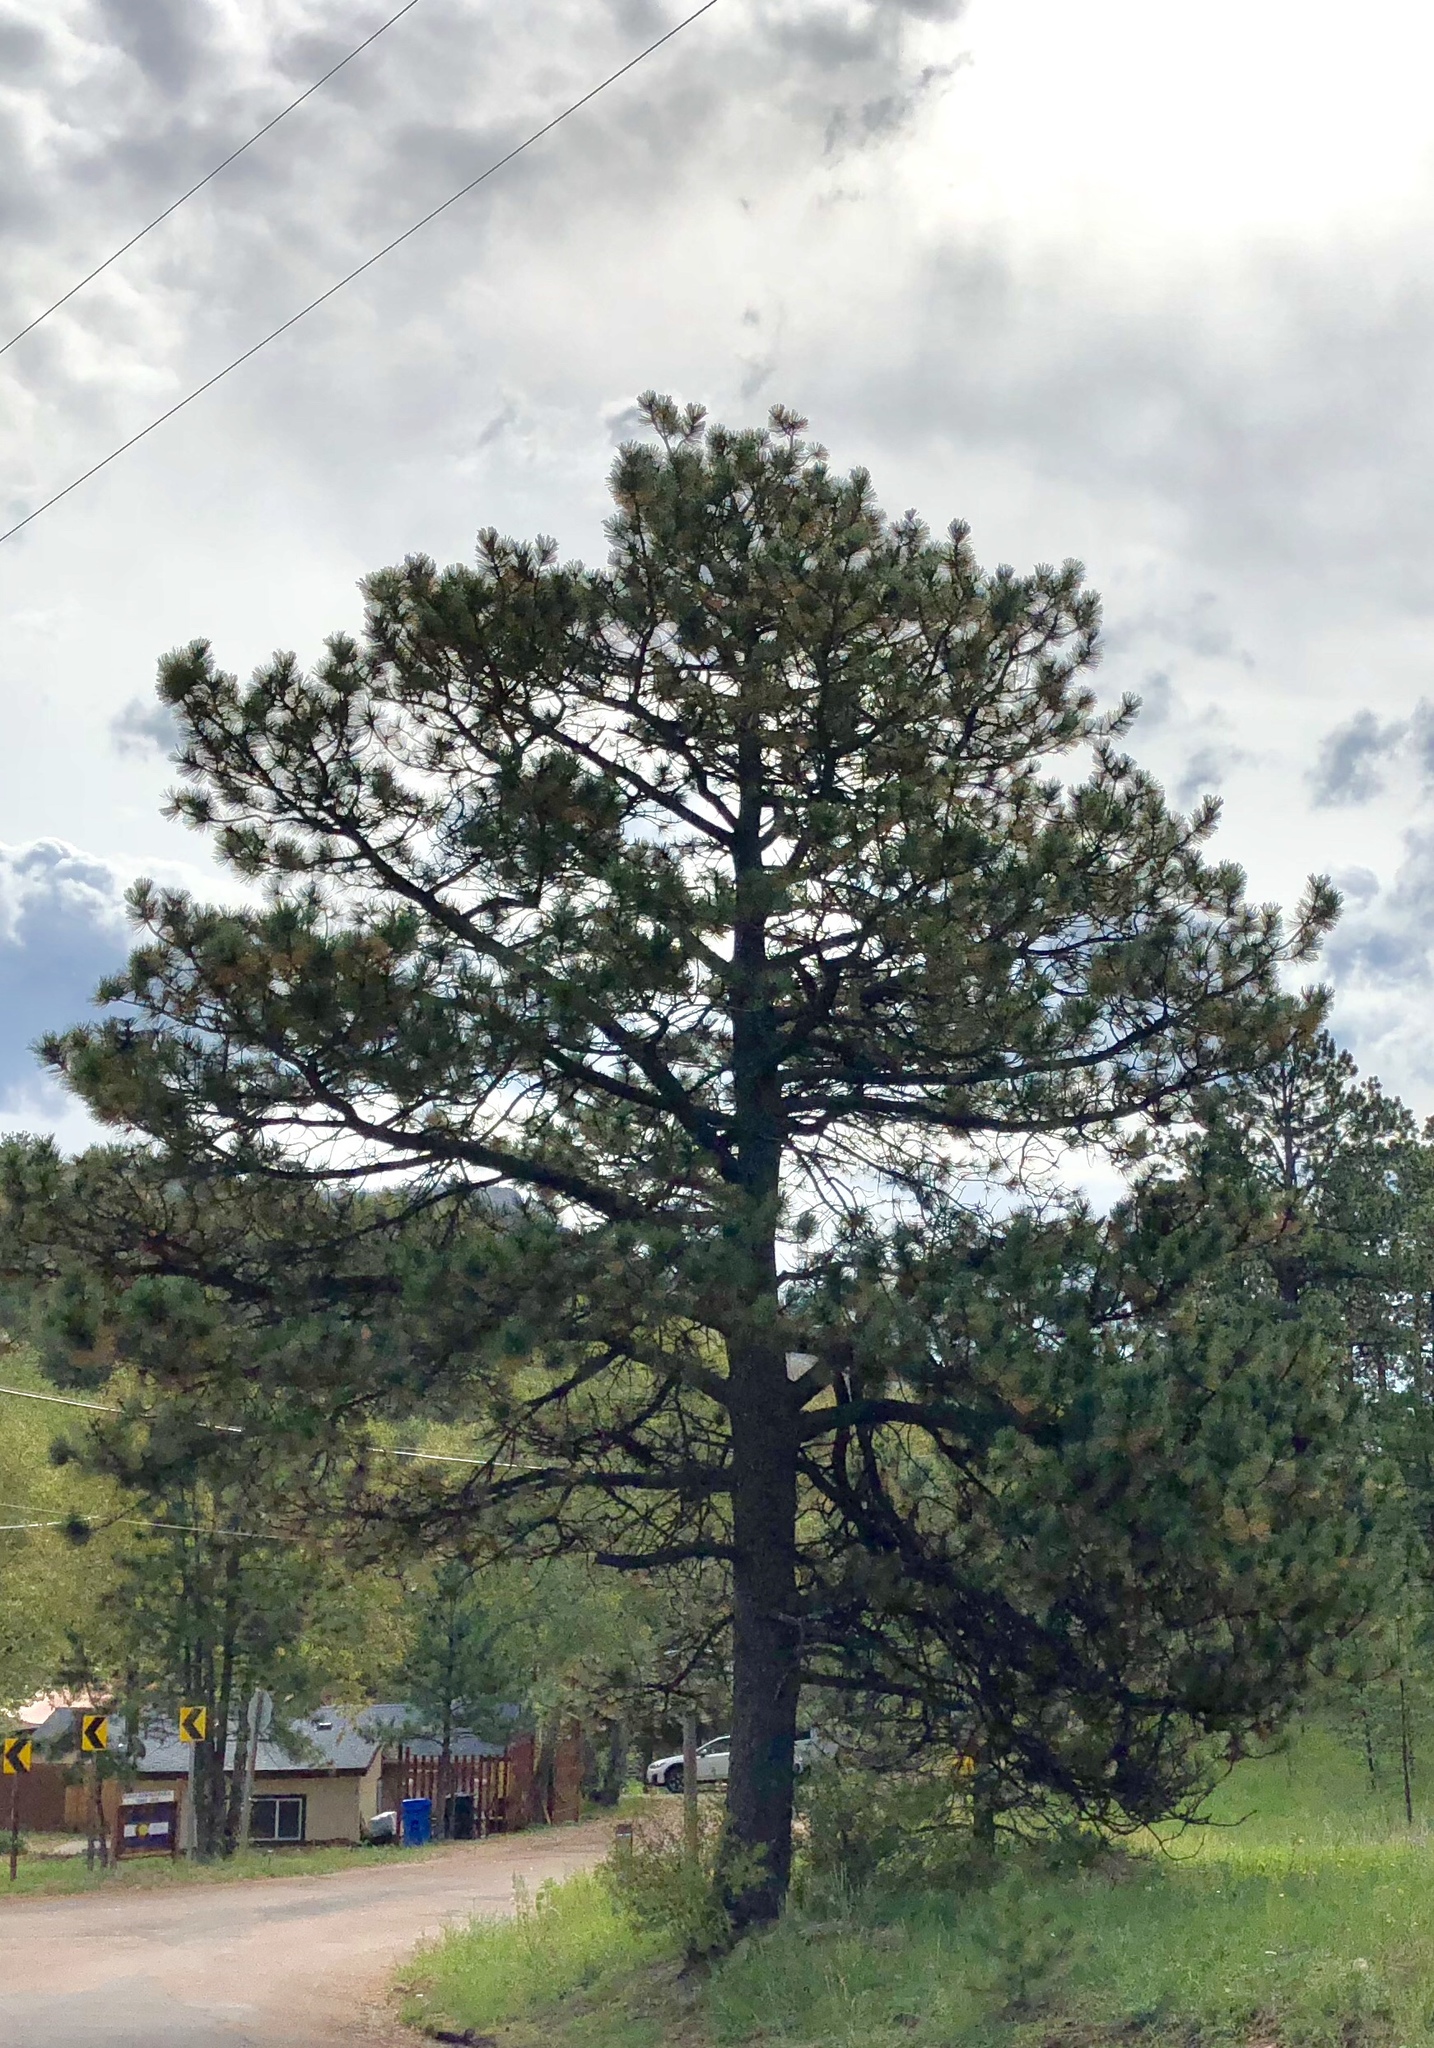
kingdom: Plantae
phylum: Tracheophyta
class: Pinopsida
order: Pinales
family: Pinaceae
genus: Pinus
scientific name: Pinus ponderosa
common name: Western yellow-pine
